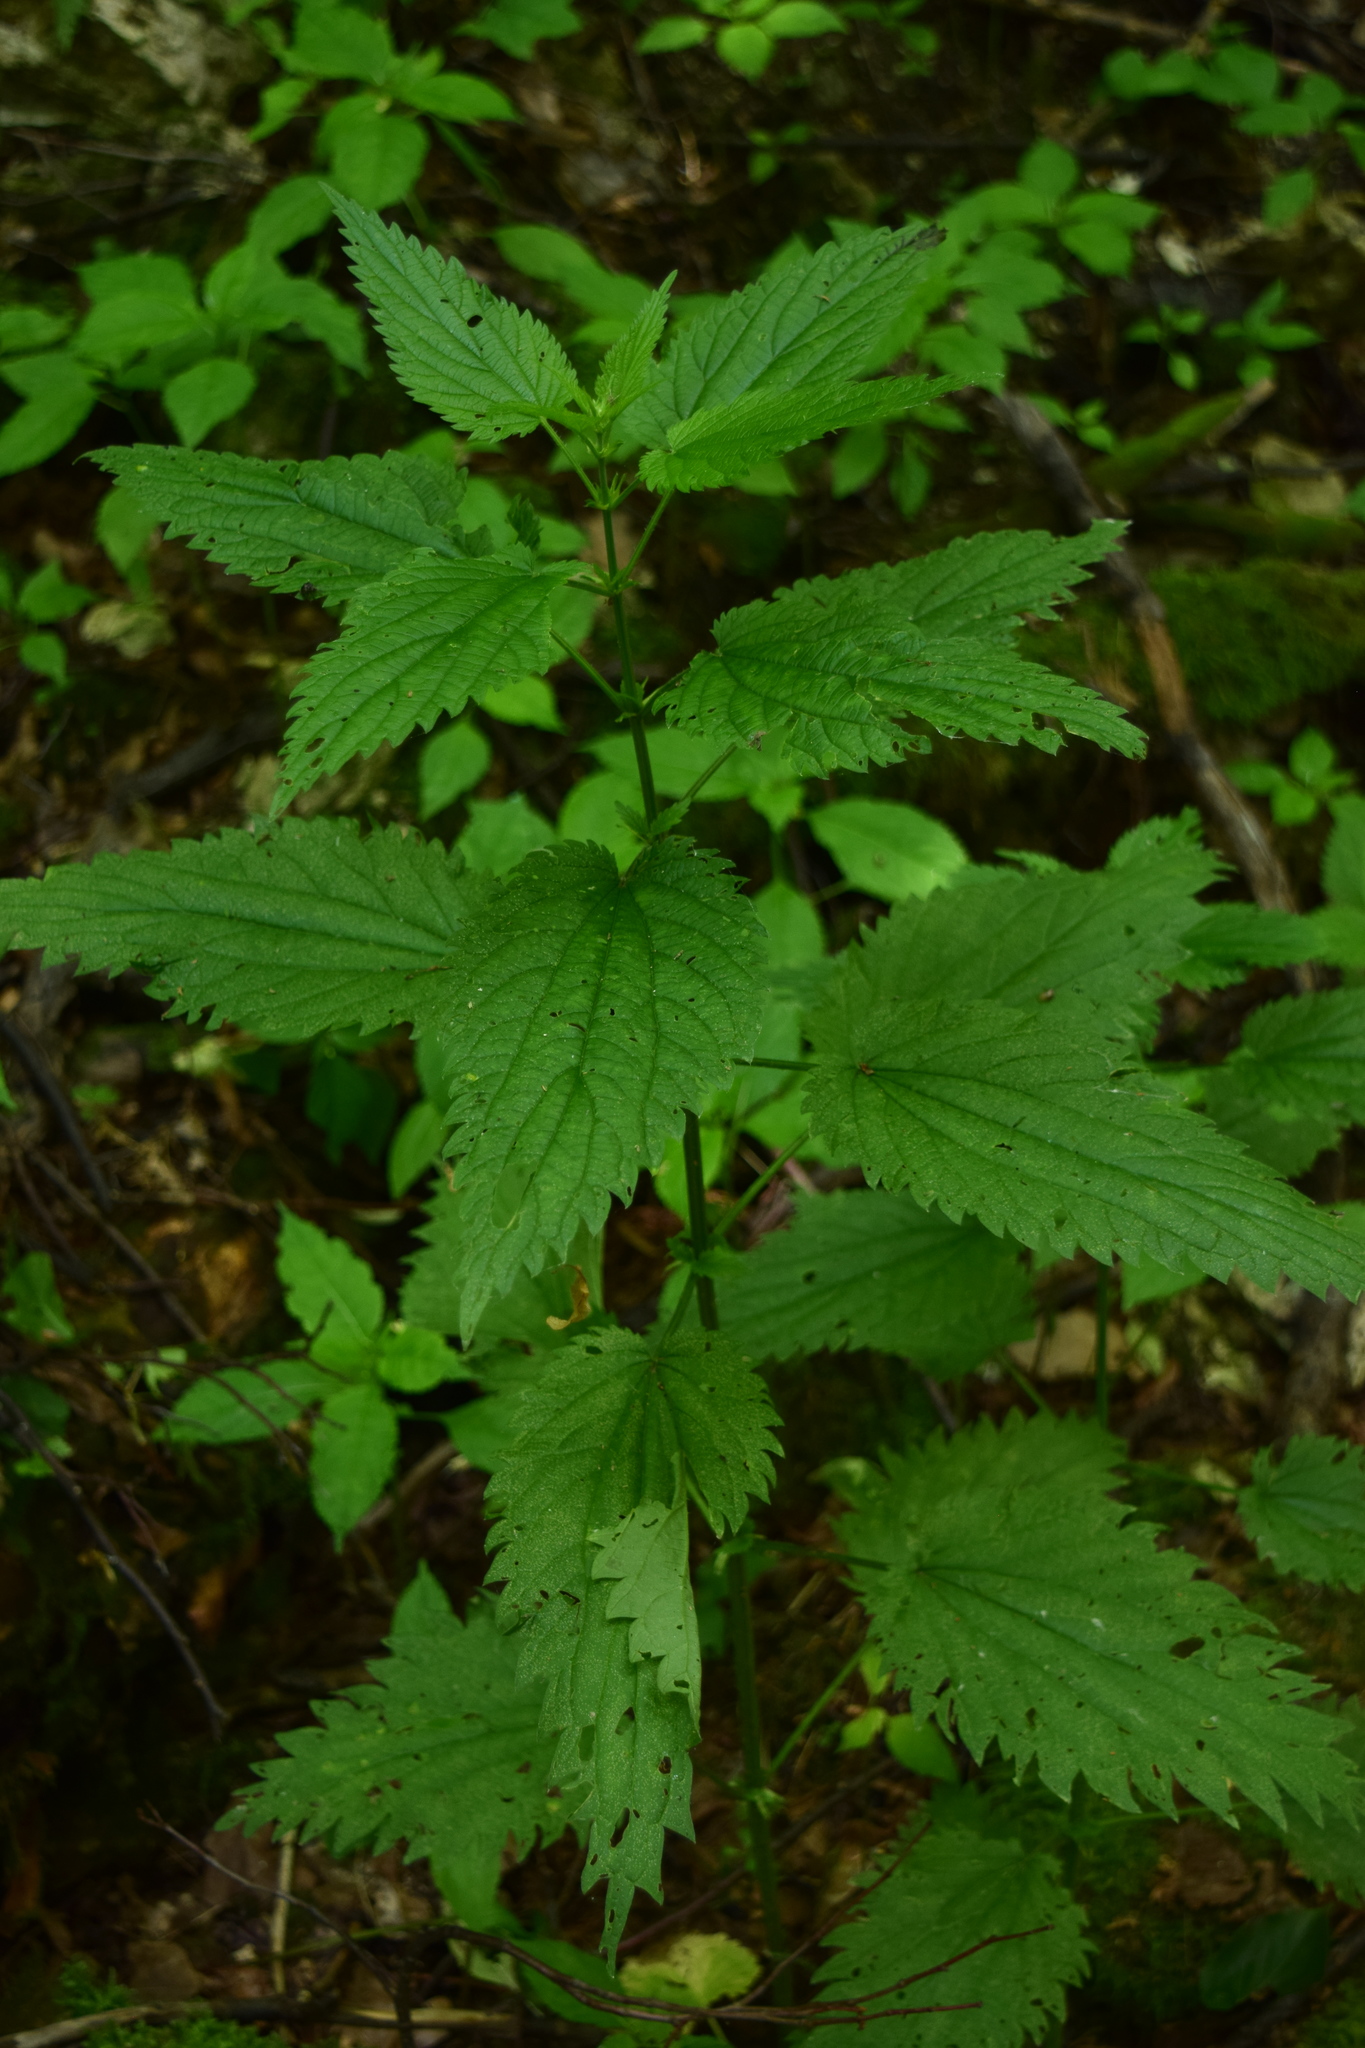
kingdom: Plantae
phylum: Tracheophyta
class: Magnoliopsida
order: Rosales
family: Urticaceae
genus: Urtica
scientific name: Urtica dioica
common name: Common nettle
